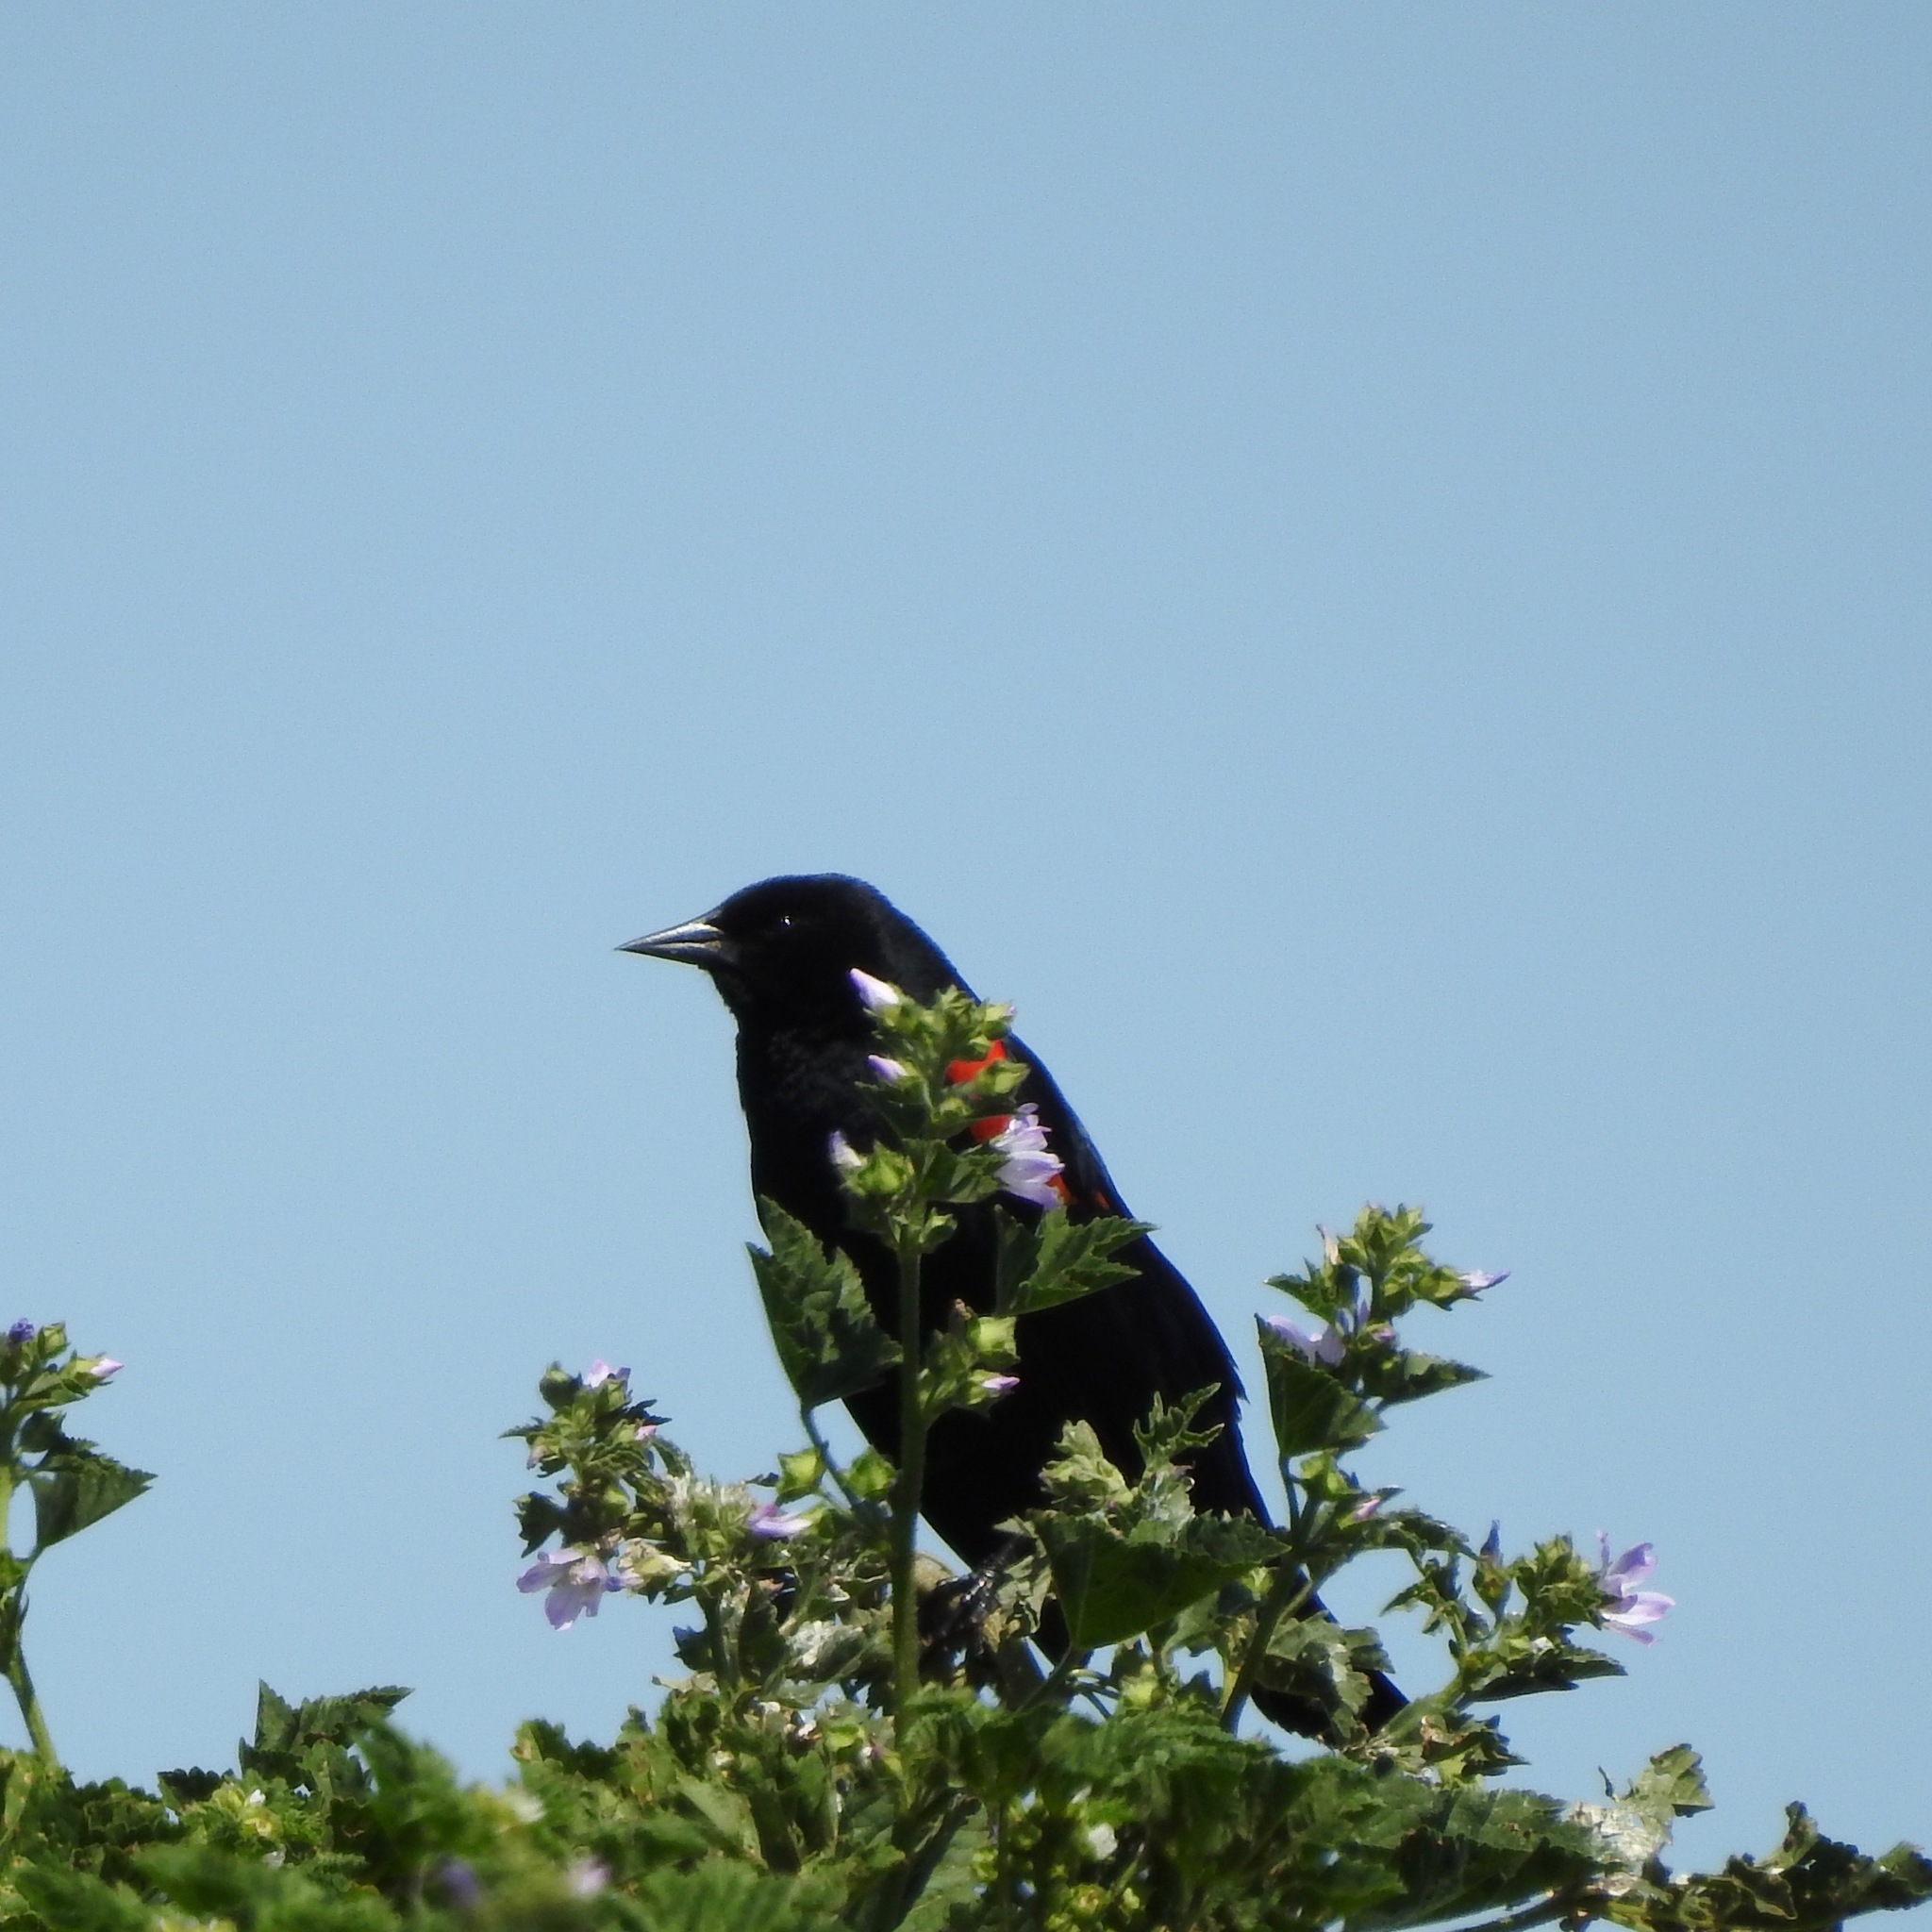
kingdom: Animalia
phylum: Chordata
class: Aves
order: Passeriformes
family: Icteridae
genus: Agelaius
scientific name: Agelaius phoeniceus
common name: Red-winged blackbird
